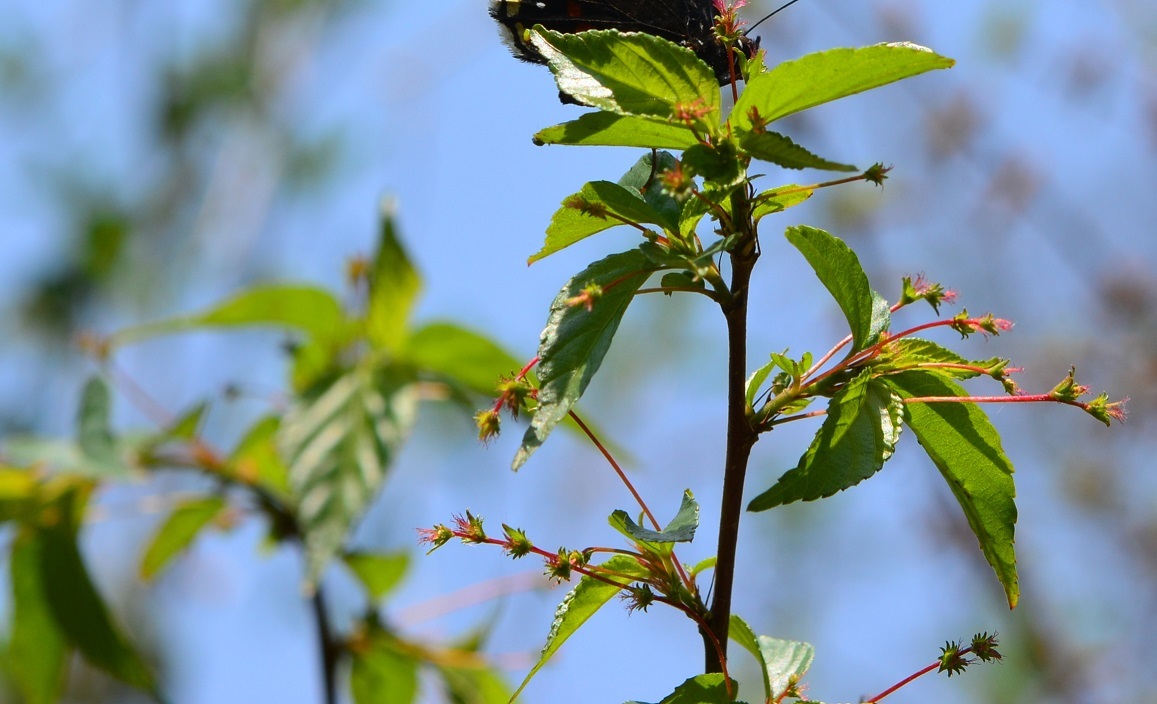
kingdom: Plantae
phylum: Tracheophyta
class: Magnoliopsida
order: Malpighiales
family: Euphorbiaceae
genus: Acalypha
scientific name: Acalypha leptopoda
